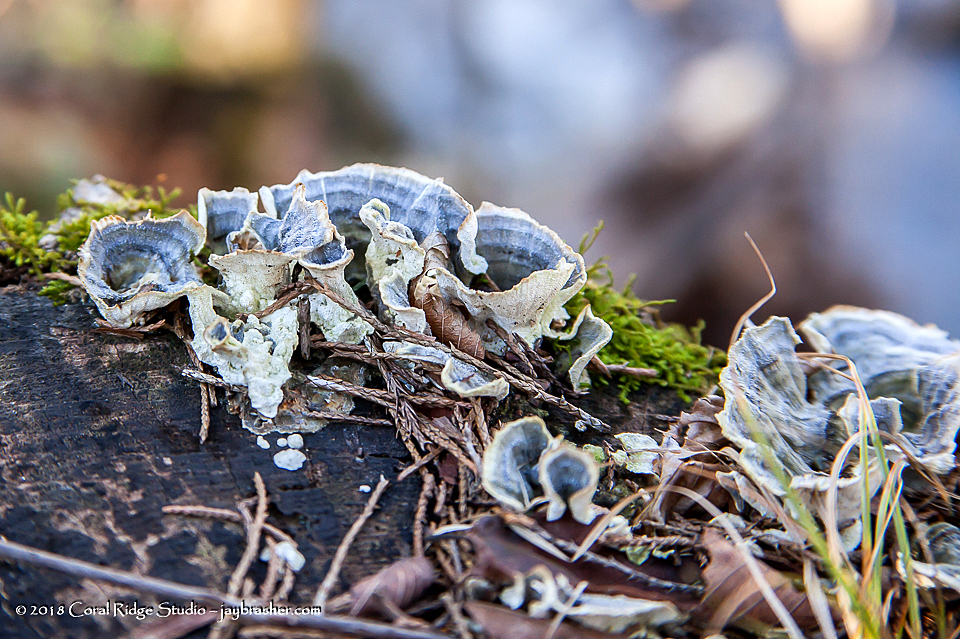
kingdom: Fungi
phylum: Basidiomycota
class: Agaricomycetes
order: Polyporales
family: Polyporaceae
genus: Trametes
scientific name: Trametes versicolor
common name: Turkeytail
